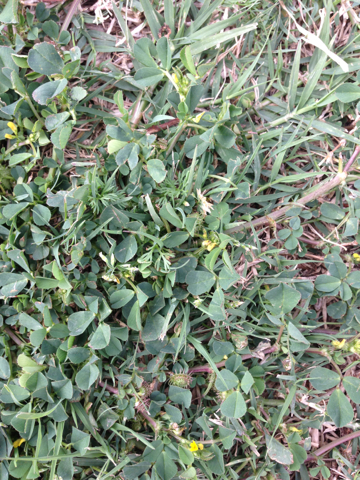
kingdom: Plantae
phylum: Tracheophyta
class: Magnoliopsida
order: Fabales
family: Fabaceae
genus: Medicago
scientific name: Medicago polymorpha
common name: Burclover
